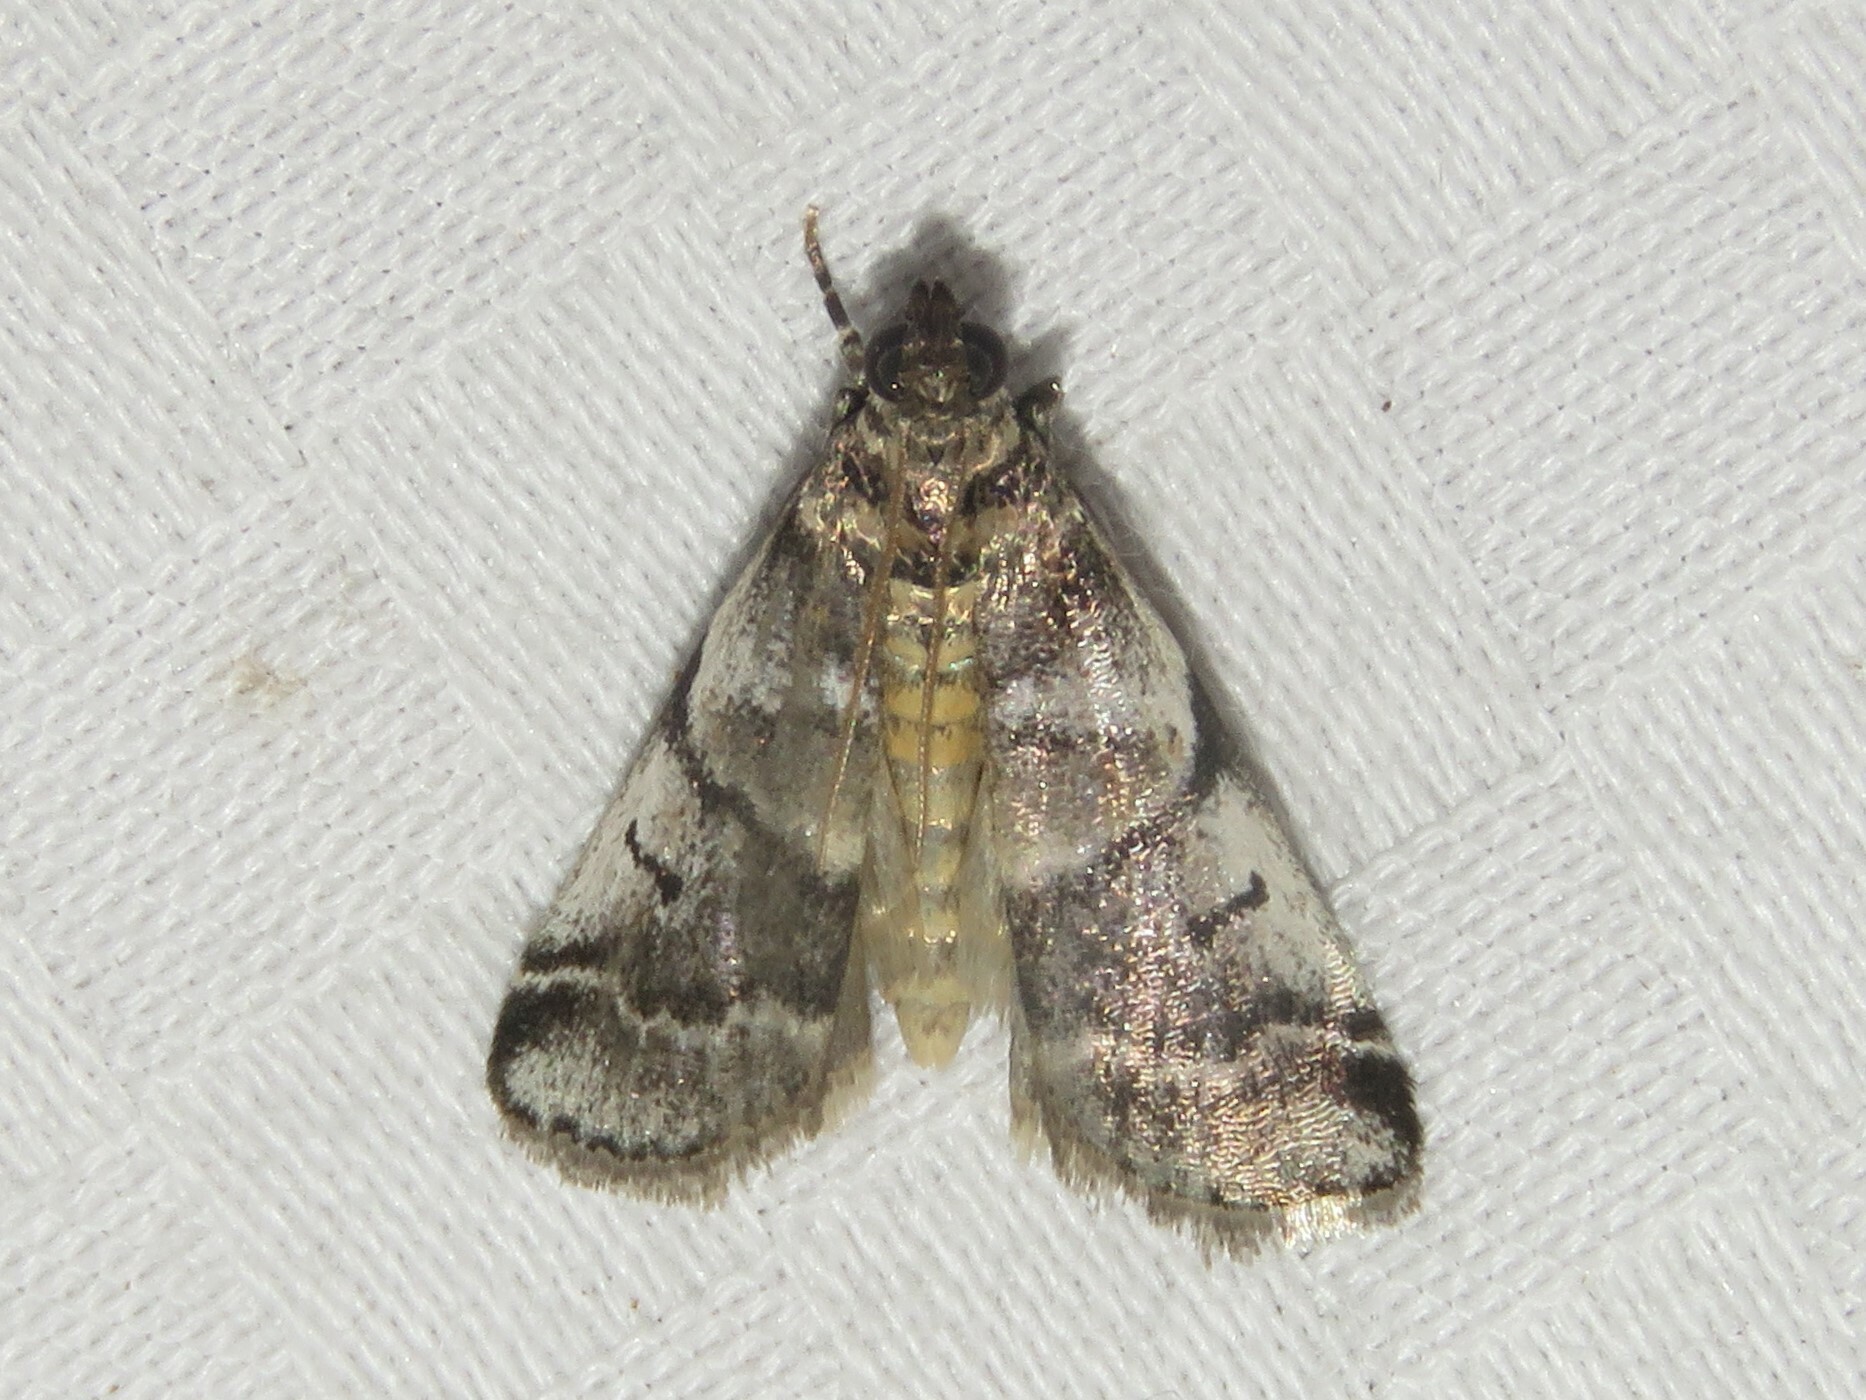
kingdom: Animalia
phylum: Arthropoda
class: Insecta
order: Lepidoptera
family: Pyralidae
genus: Acrobasis
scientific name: Acrobasis indigenella
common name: Leaf crumpler moth
